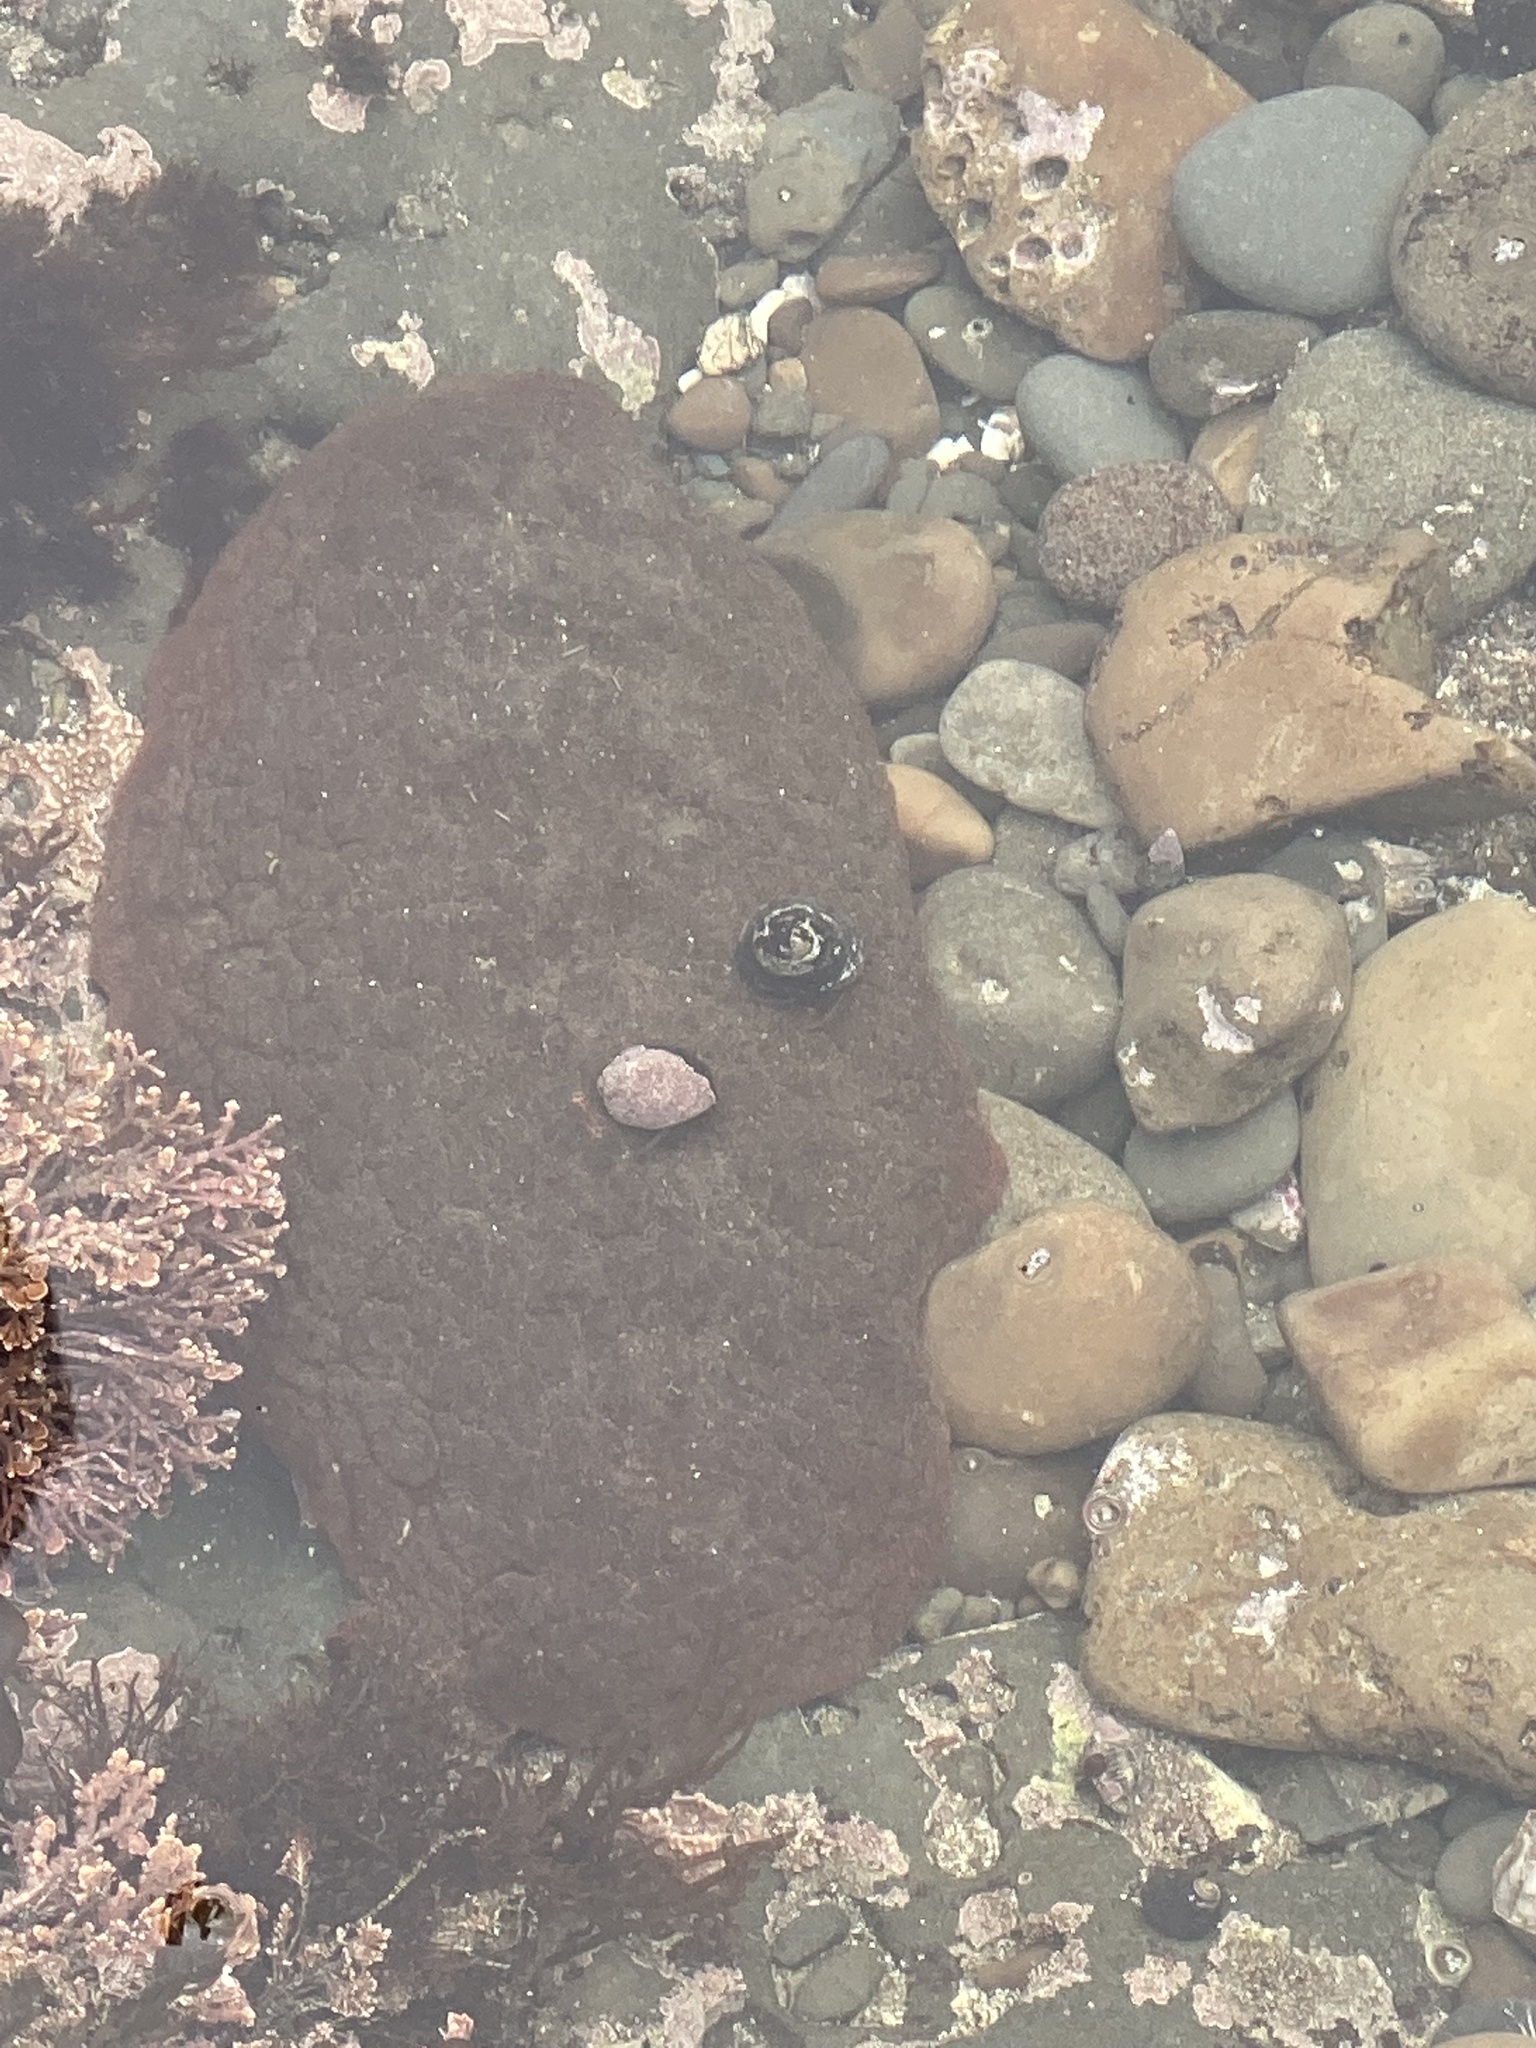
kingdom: Animalia
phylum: Mollusca
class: Polyplacophora
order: Chitonida
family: Acanthochitonidae
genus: Cryptochiton
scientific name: Cryptochiton stelleri
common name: Giant pacific chiton
